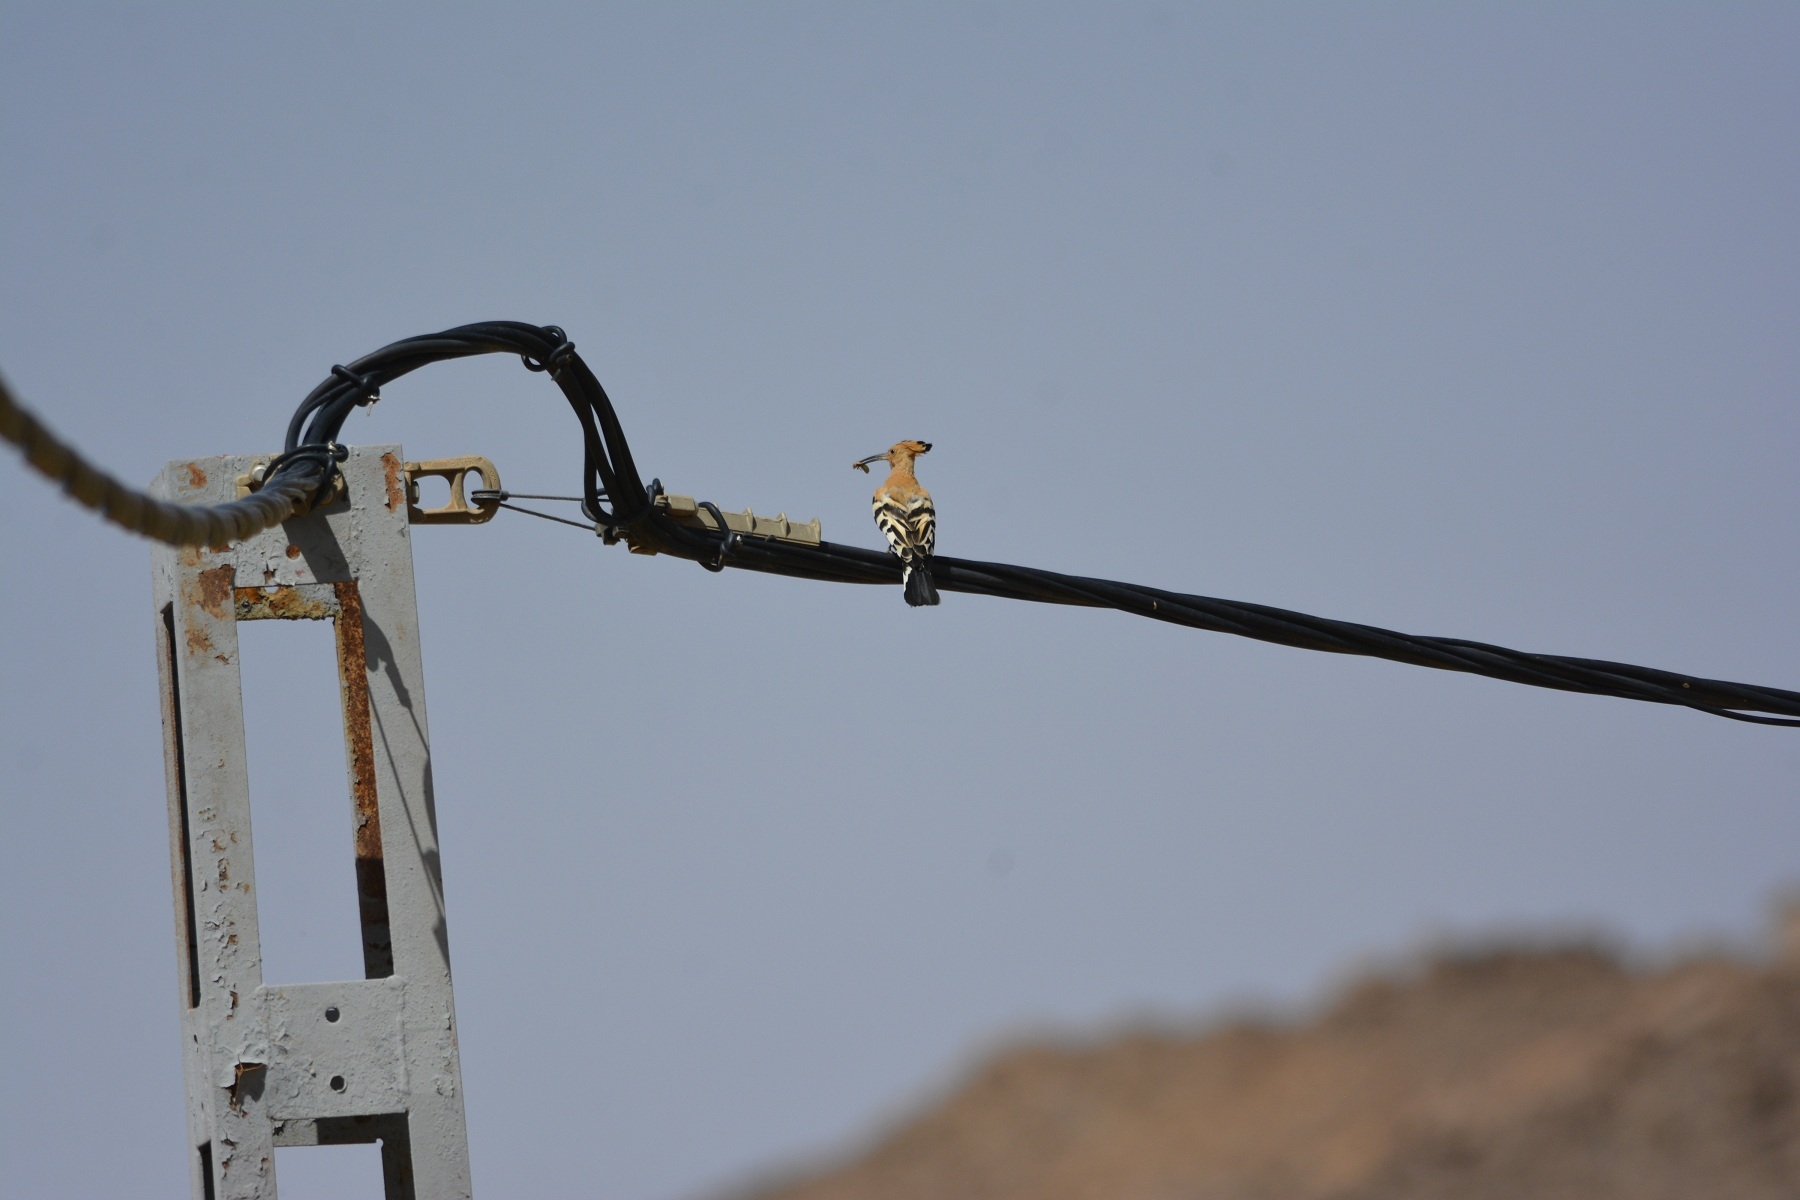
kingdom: Animalia
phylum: Chordata
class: Aves
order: Bucerotiformes
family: Upupidae
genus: Upupa
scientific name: Upupa epops
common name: Eurasian hoopoe
